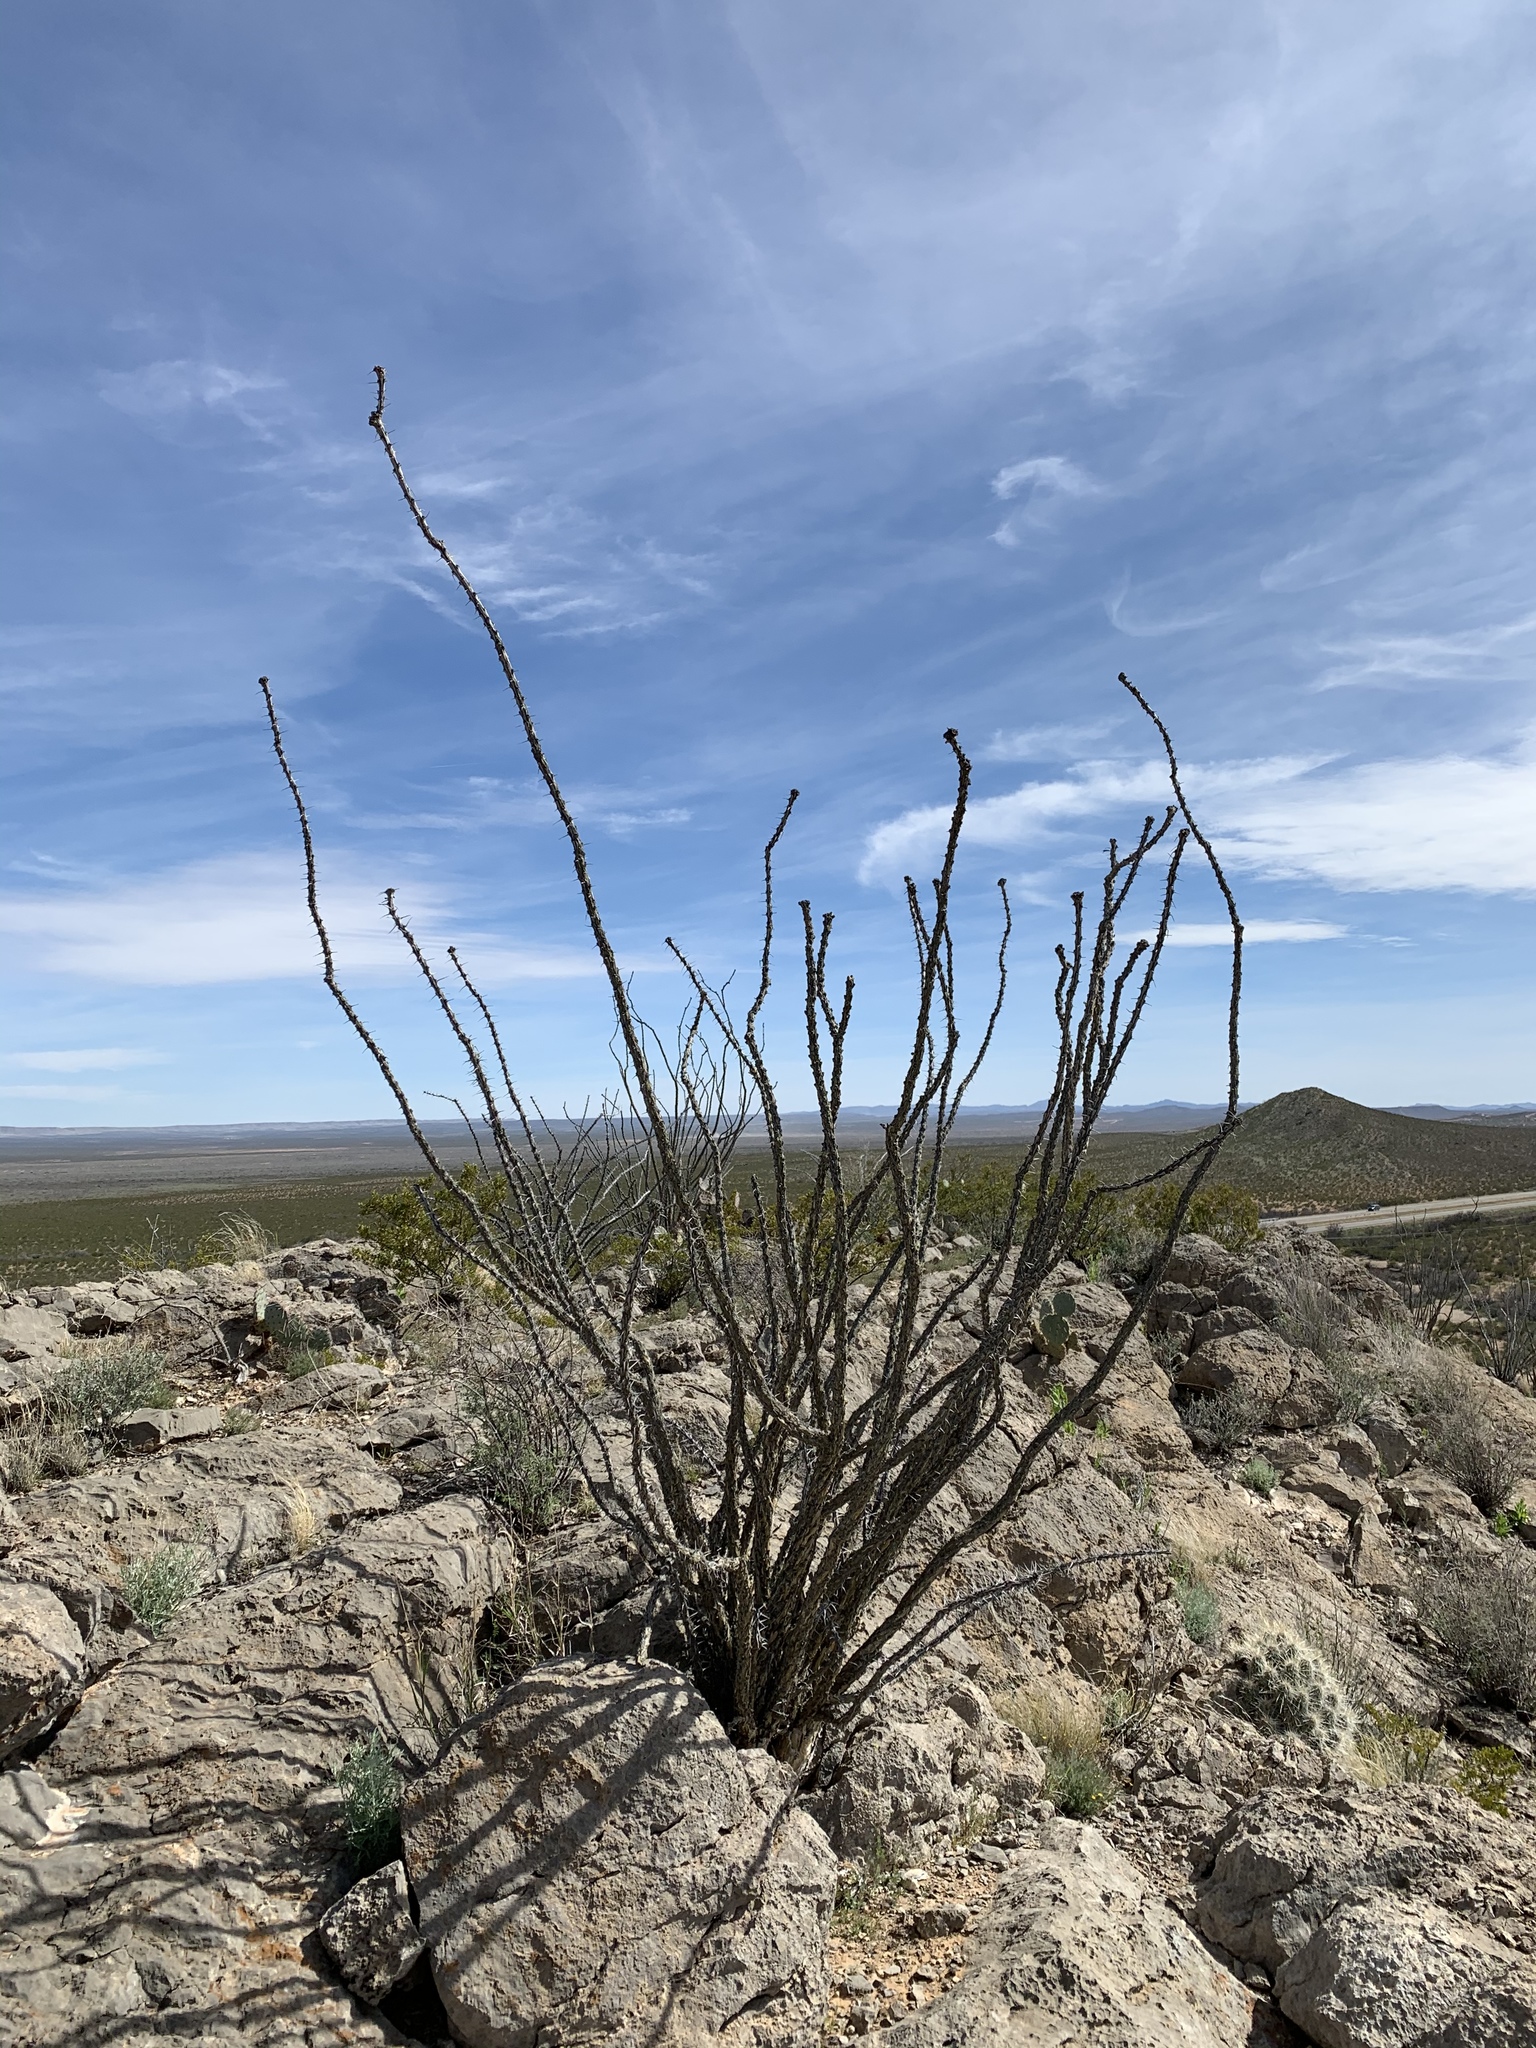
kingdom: Plantae
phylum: Tracheophyta
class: Magnoliopsida
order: Ericales
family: Fouquieriaceae
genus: Fouquieria
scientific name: Fouquieria splendens
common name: Vine-cactus
